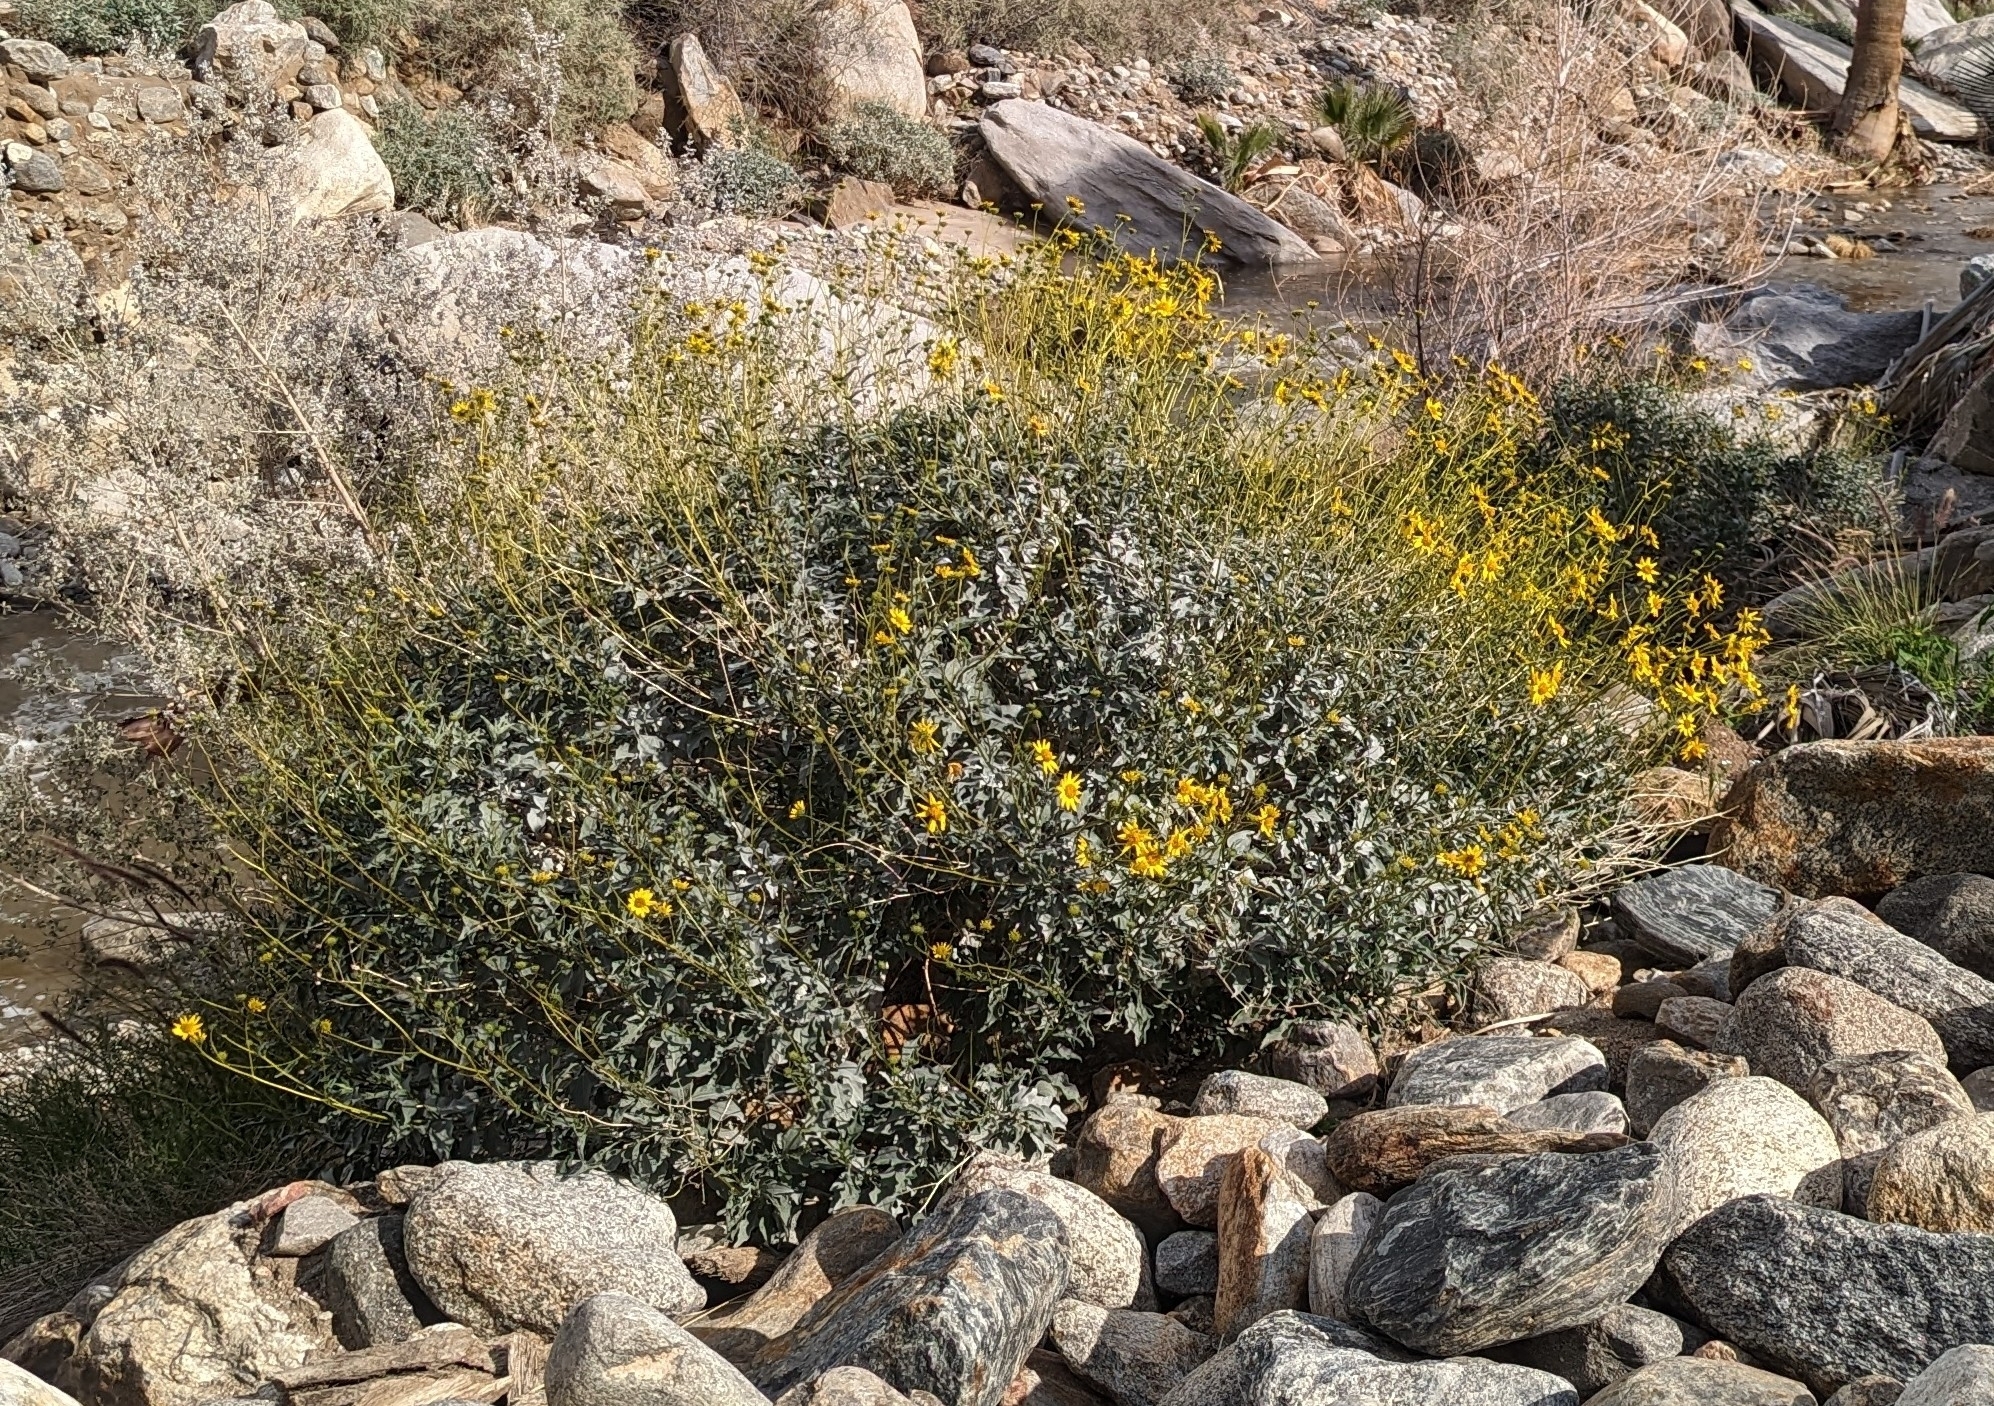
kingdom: Plantae
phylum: Tracheophyta
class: Magnoliopsida
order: Asterales
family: Asteraceae
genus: Encelia
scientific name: Encelia farinosa
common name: Brittlebush
